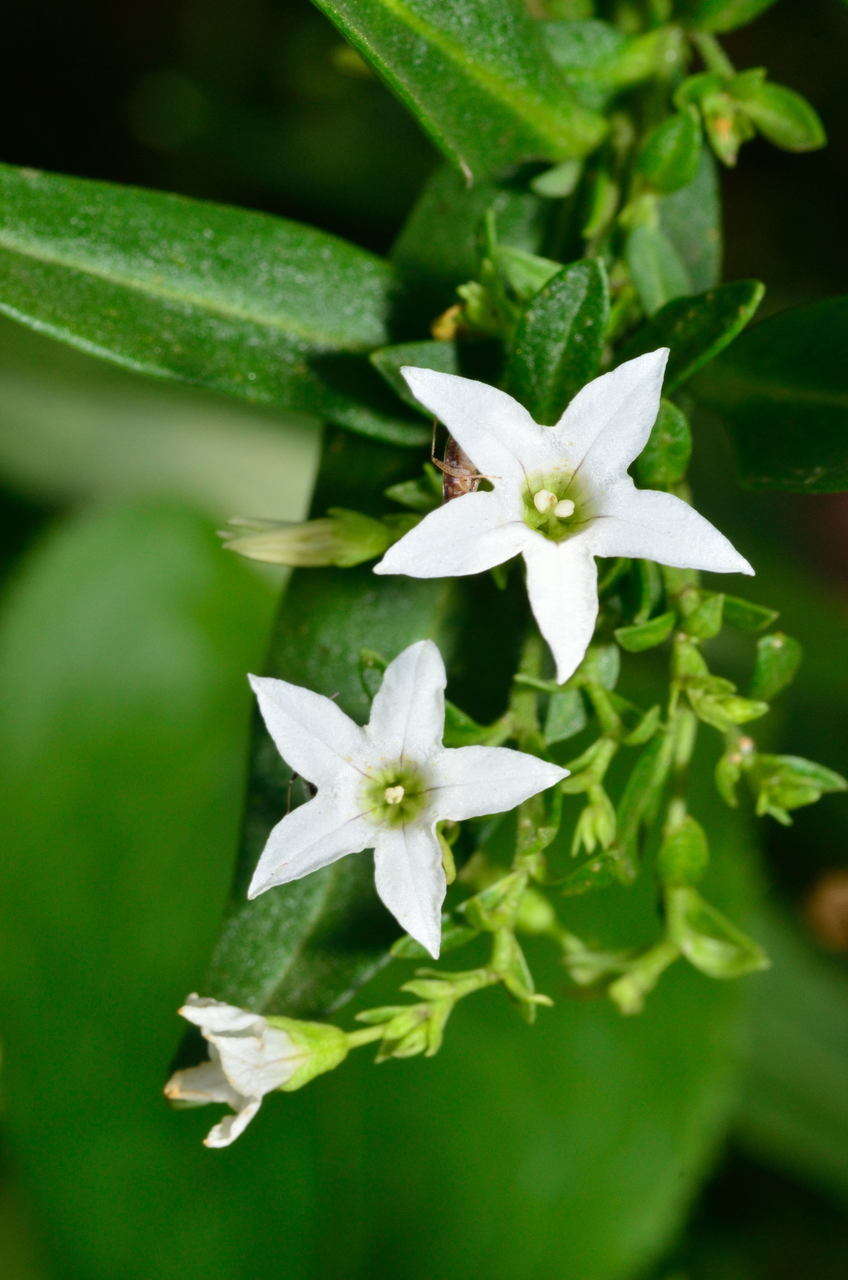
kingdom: Plantae
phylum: Tracheophyta
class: Magnoliopsida
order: Solanales
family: Solanaceae
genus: Cyphanthera
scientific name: Cyphanthera anthocercidea
